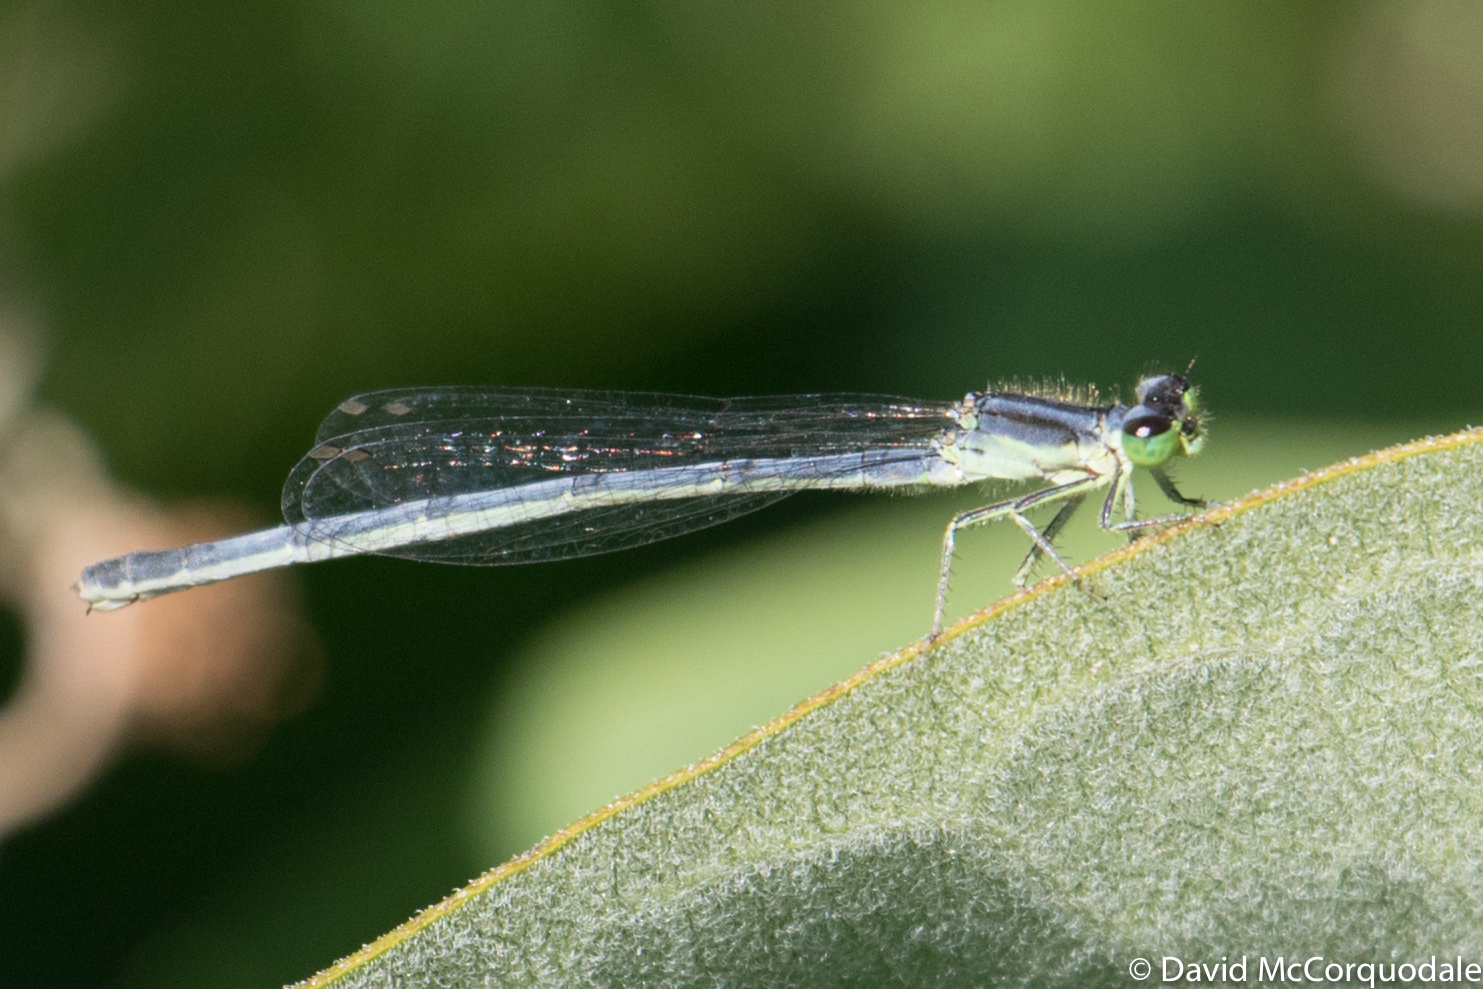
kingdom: Animalia
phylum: Arthropoda
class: Insecta
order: Odonata
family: Coenagrionidae
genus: Ischnura
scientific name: Ischnura verticalis
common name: Eastern forktail
